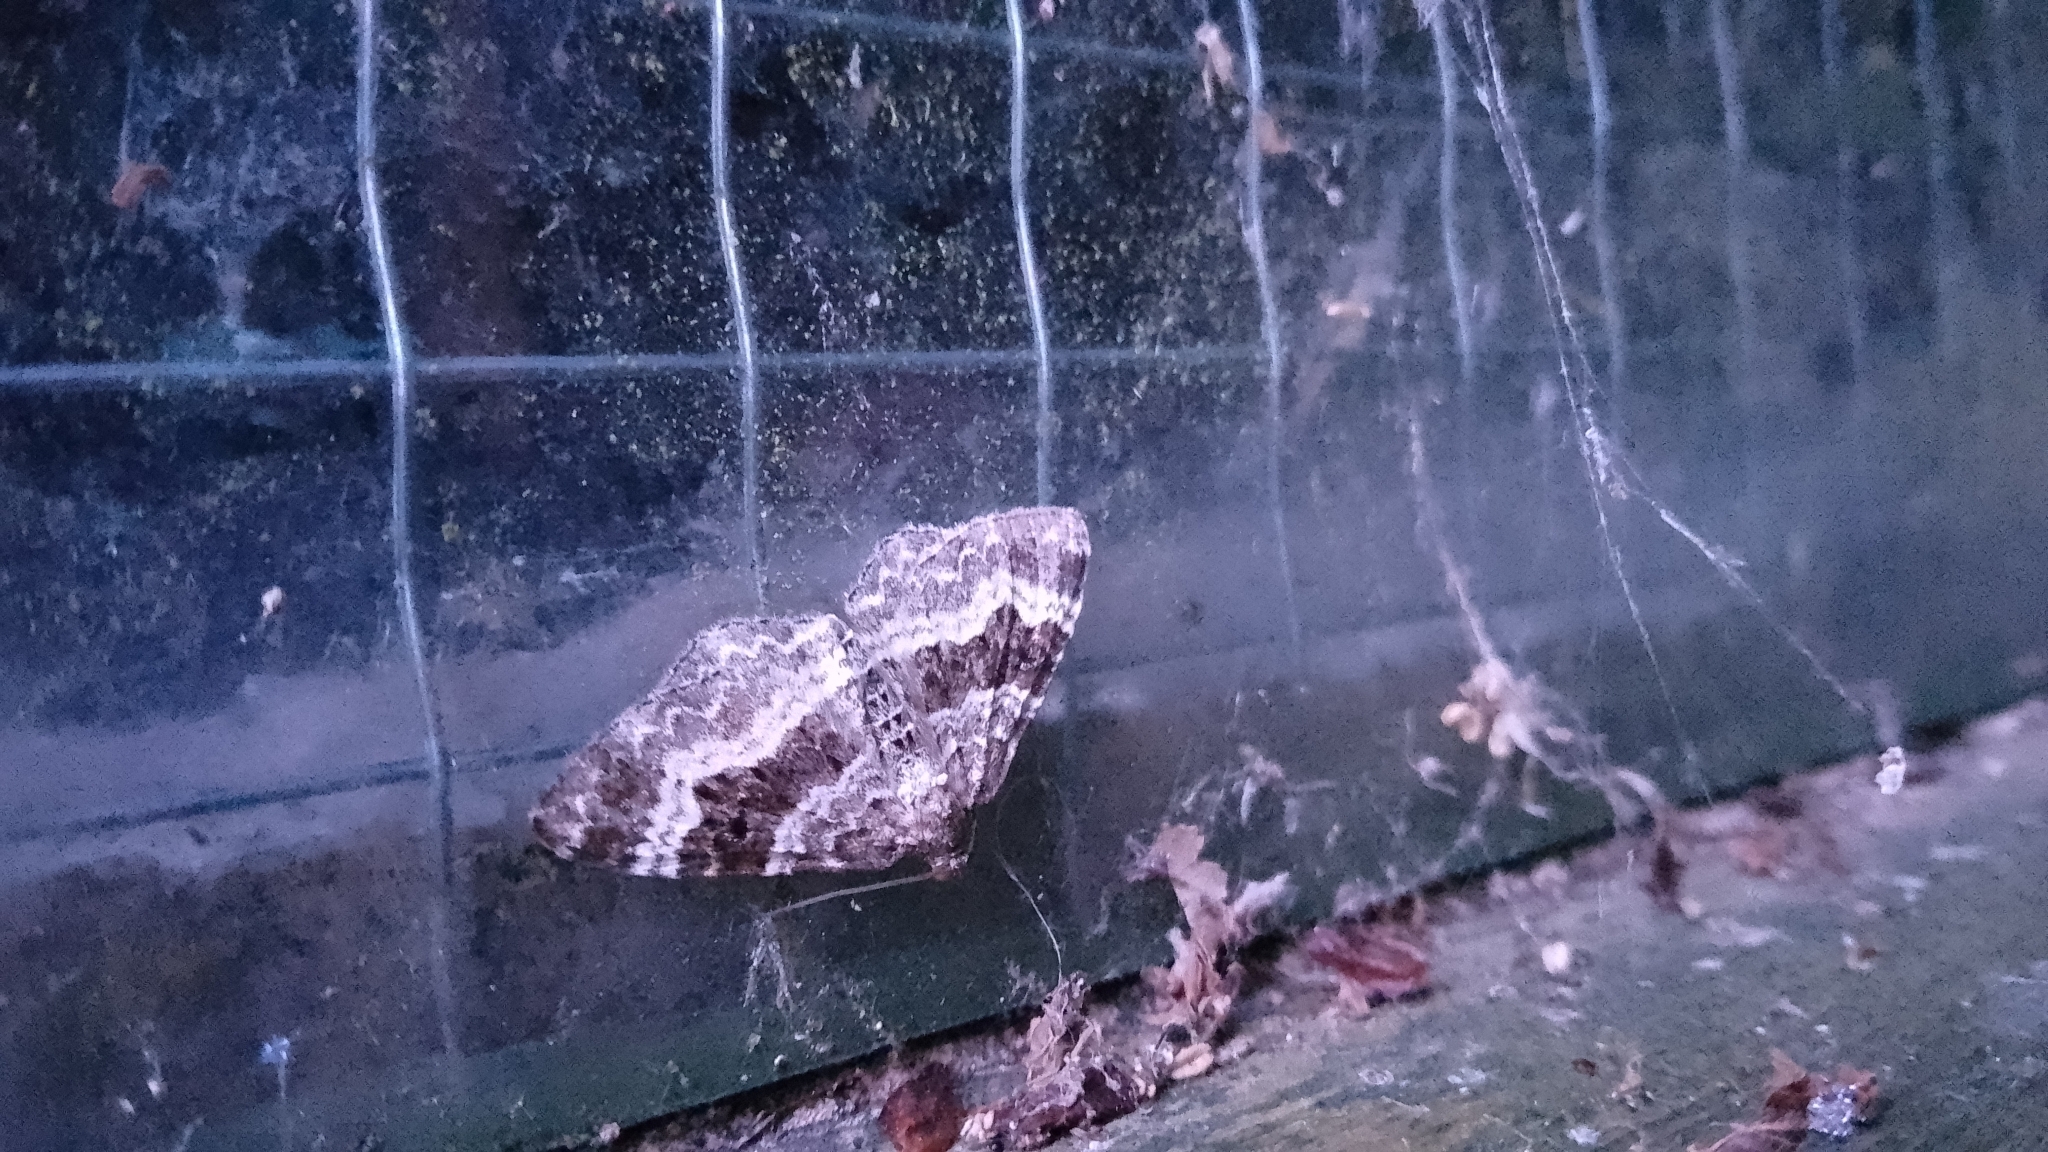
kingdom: Animalia
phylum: Arthropoda
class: Insecta
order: Lepidoptera
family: Geometridae
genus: Epirrhoe
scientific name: Epirrhoe alternata
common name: Common carpet
